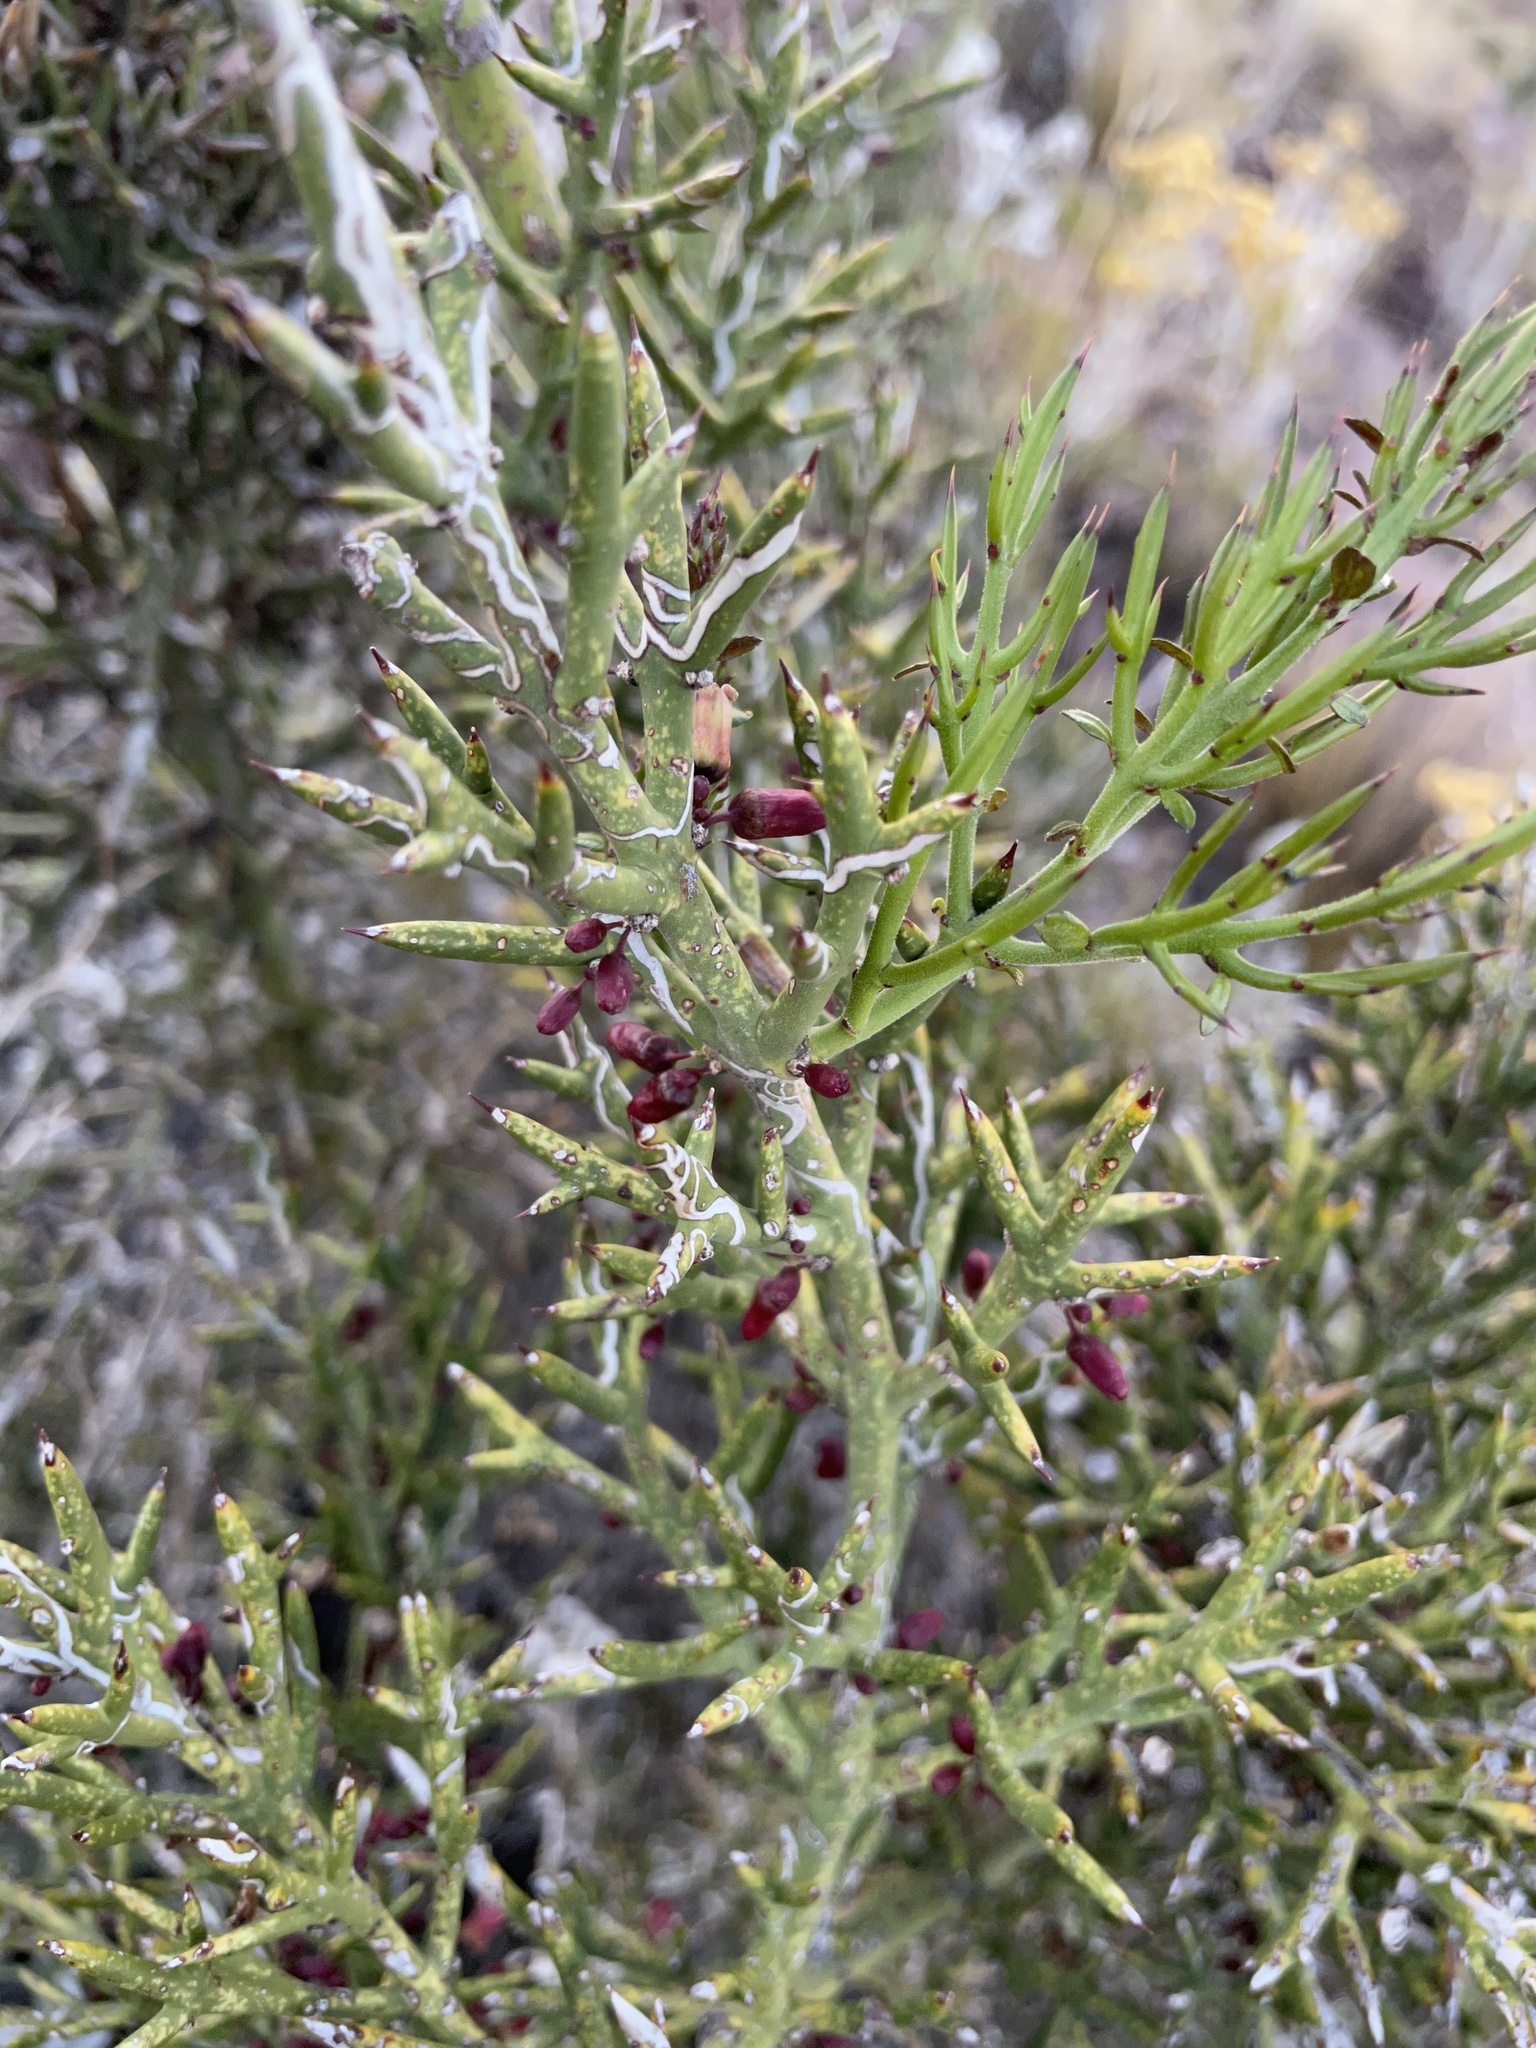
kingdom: Plantae
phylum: Tracheophyta
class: Magnoliopsida
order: Rosales
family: Rhamnaceae
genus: Colletia
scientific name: Colletia spinosissima
